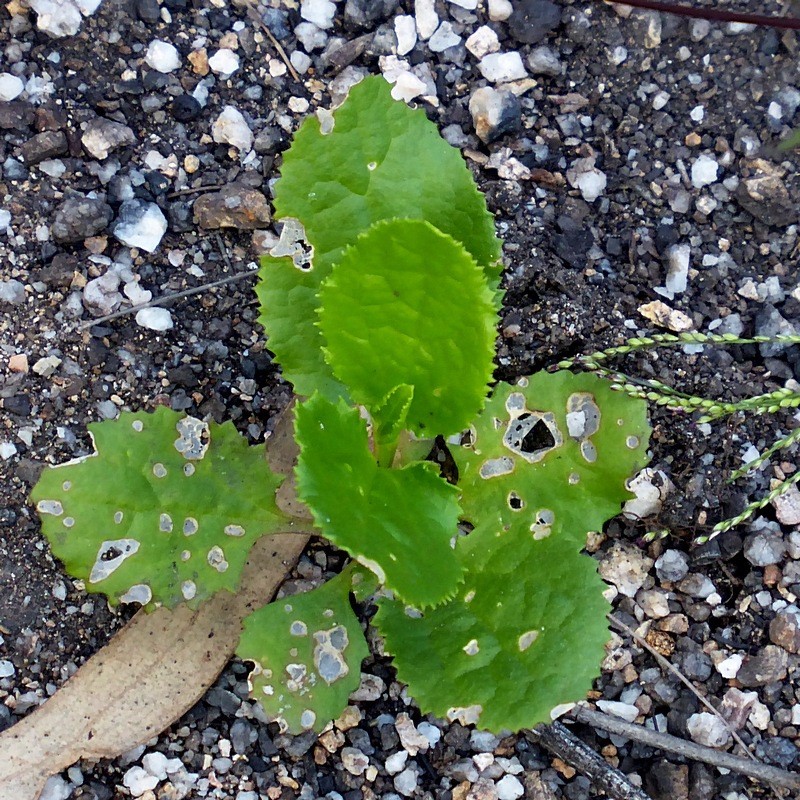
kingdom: Plantae
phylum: Tracheophyta
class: Magnoliopsida
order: Asterales
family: Goodeniaceae
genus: Goodenia
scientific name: Goodenia ovata
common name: Hop goodenia
